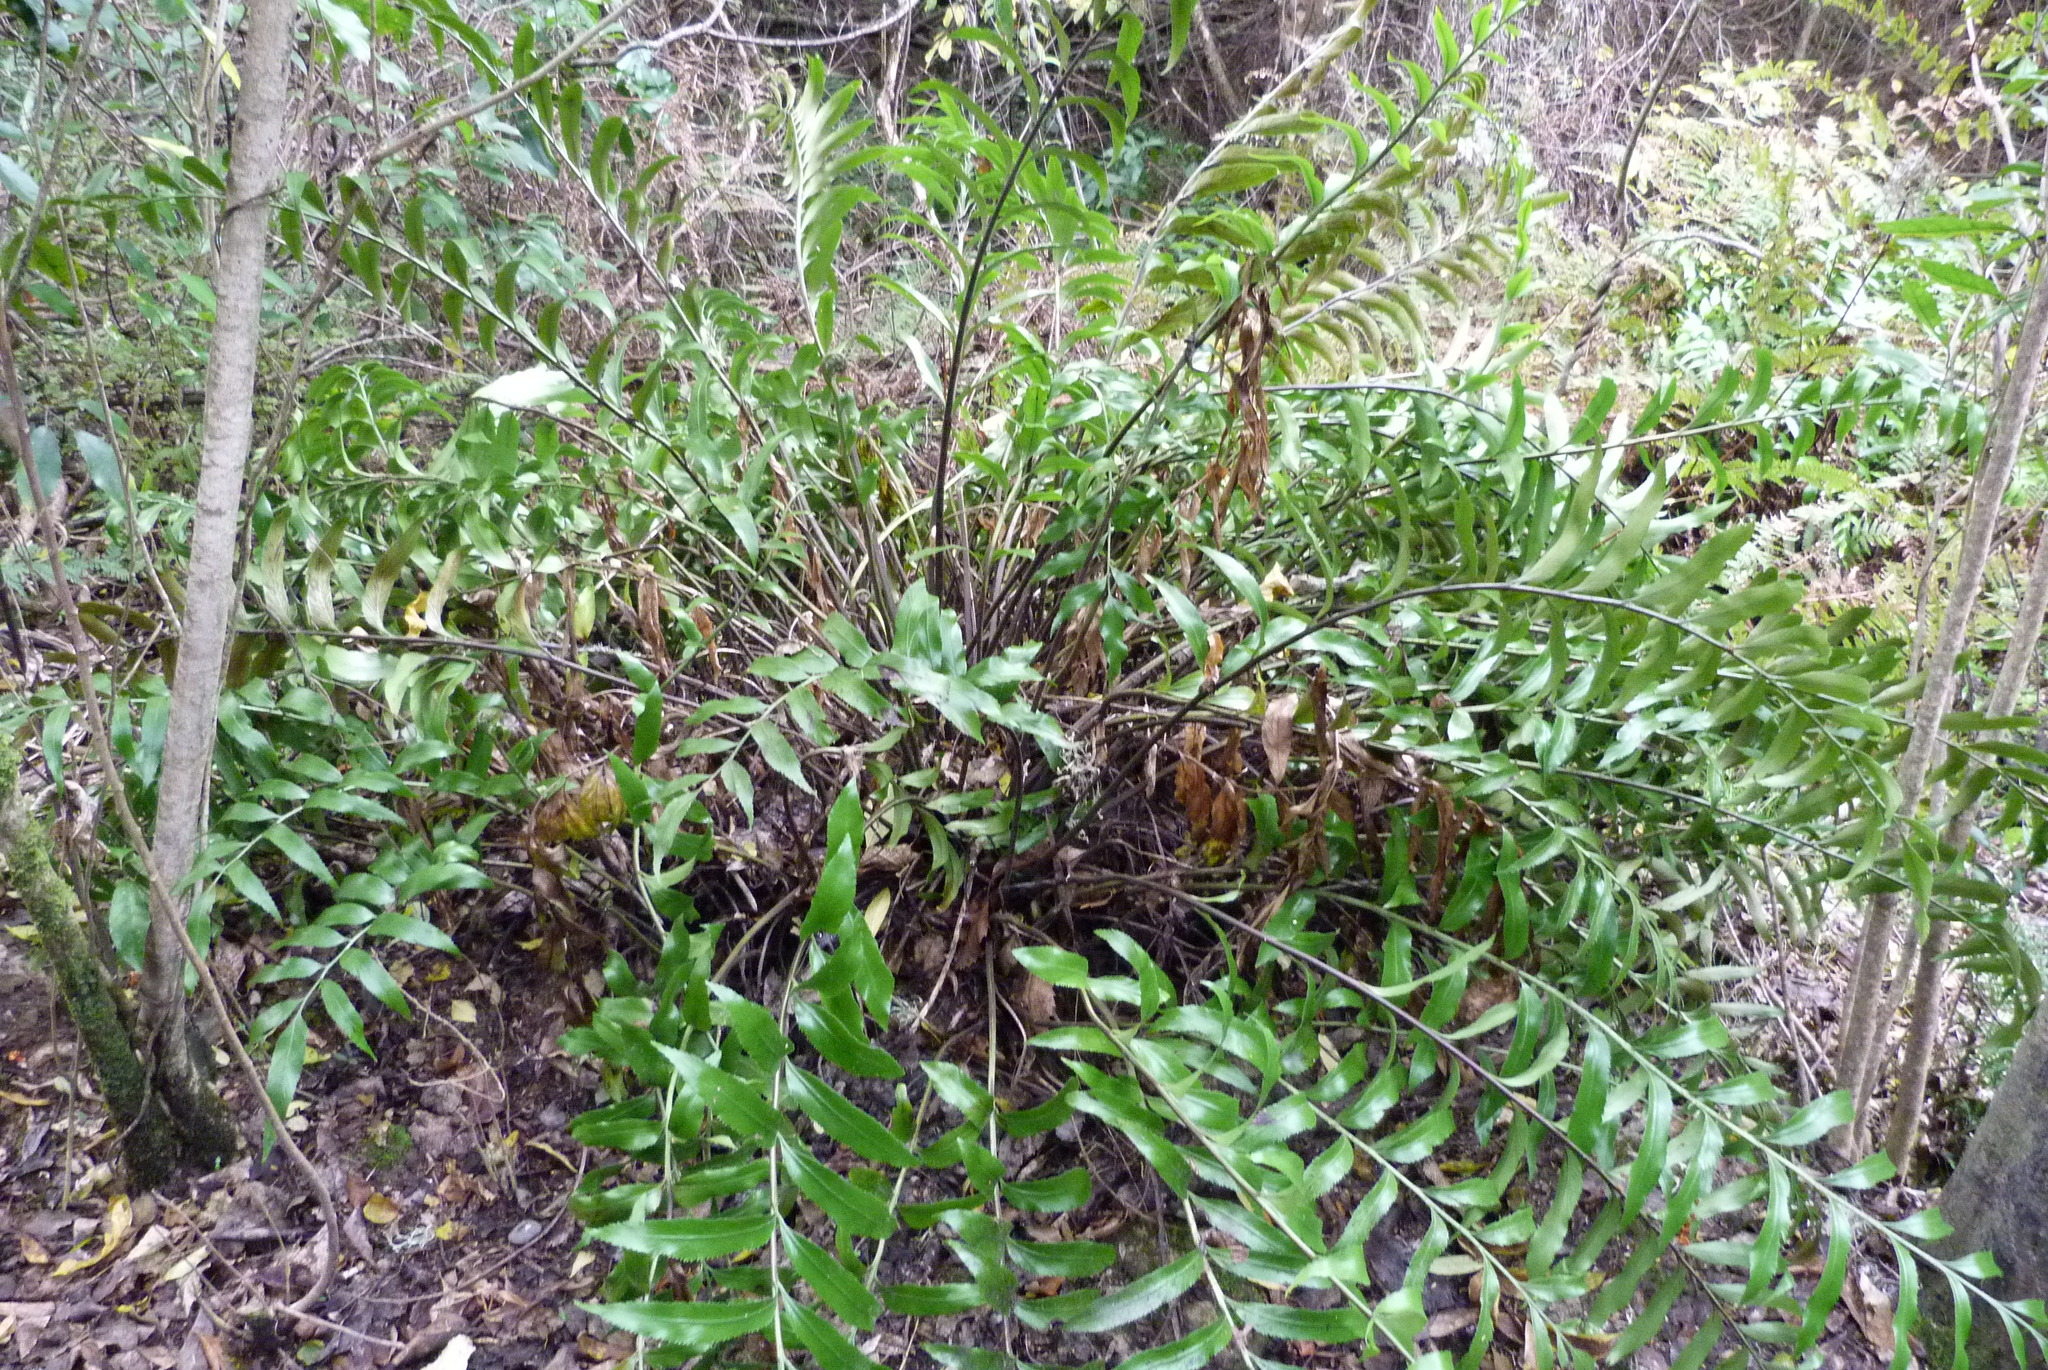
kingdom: Plantae
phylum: Tracheophyta
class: Polypodiopsida
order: Polypodiales
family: Aspleniaceae
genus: Asplenium
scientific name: Asplenium oblongifolium
